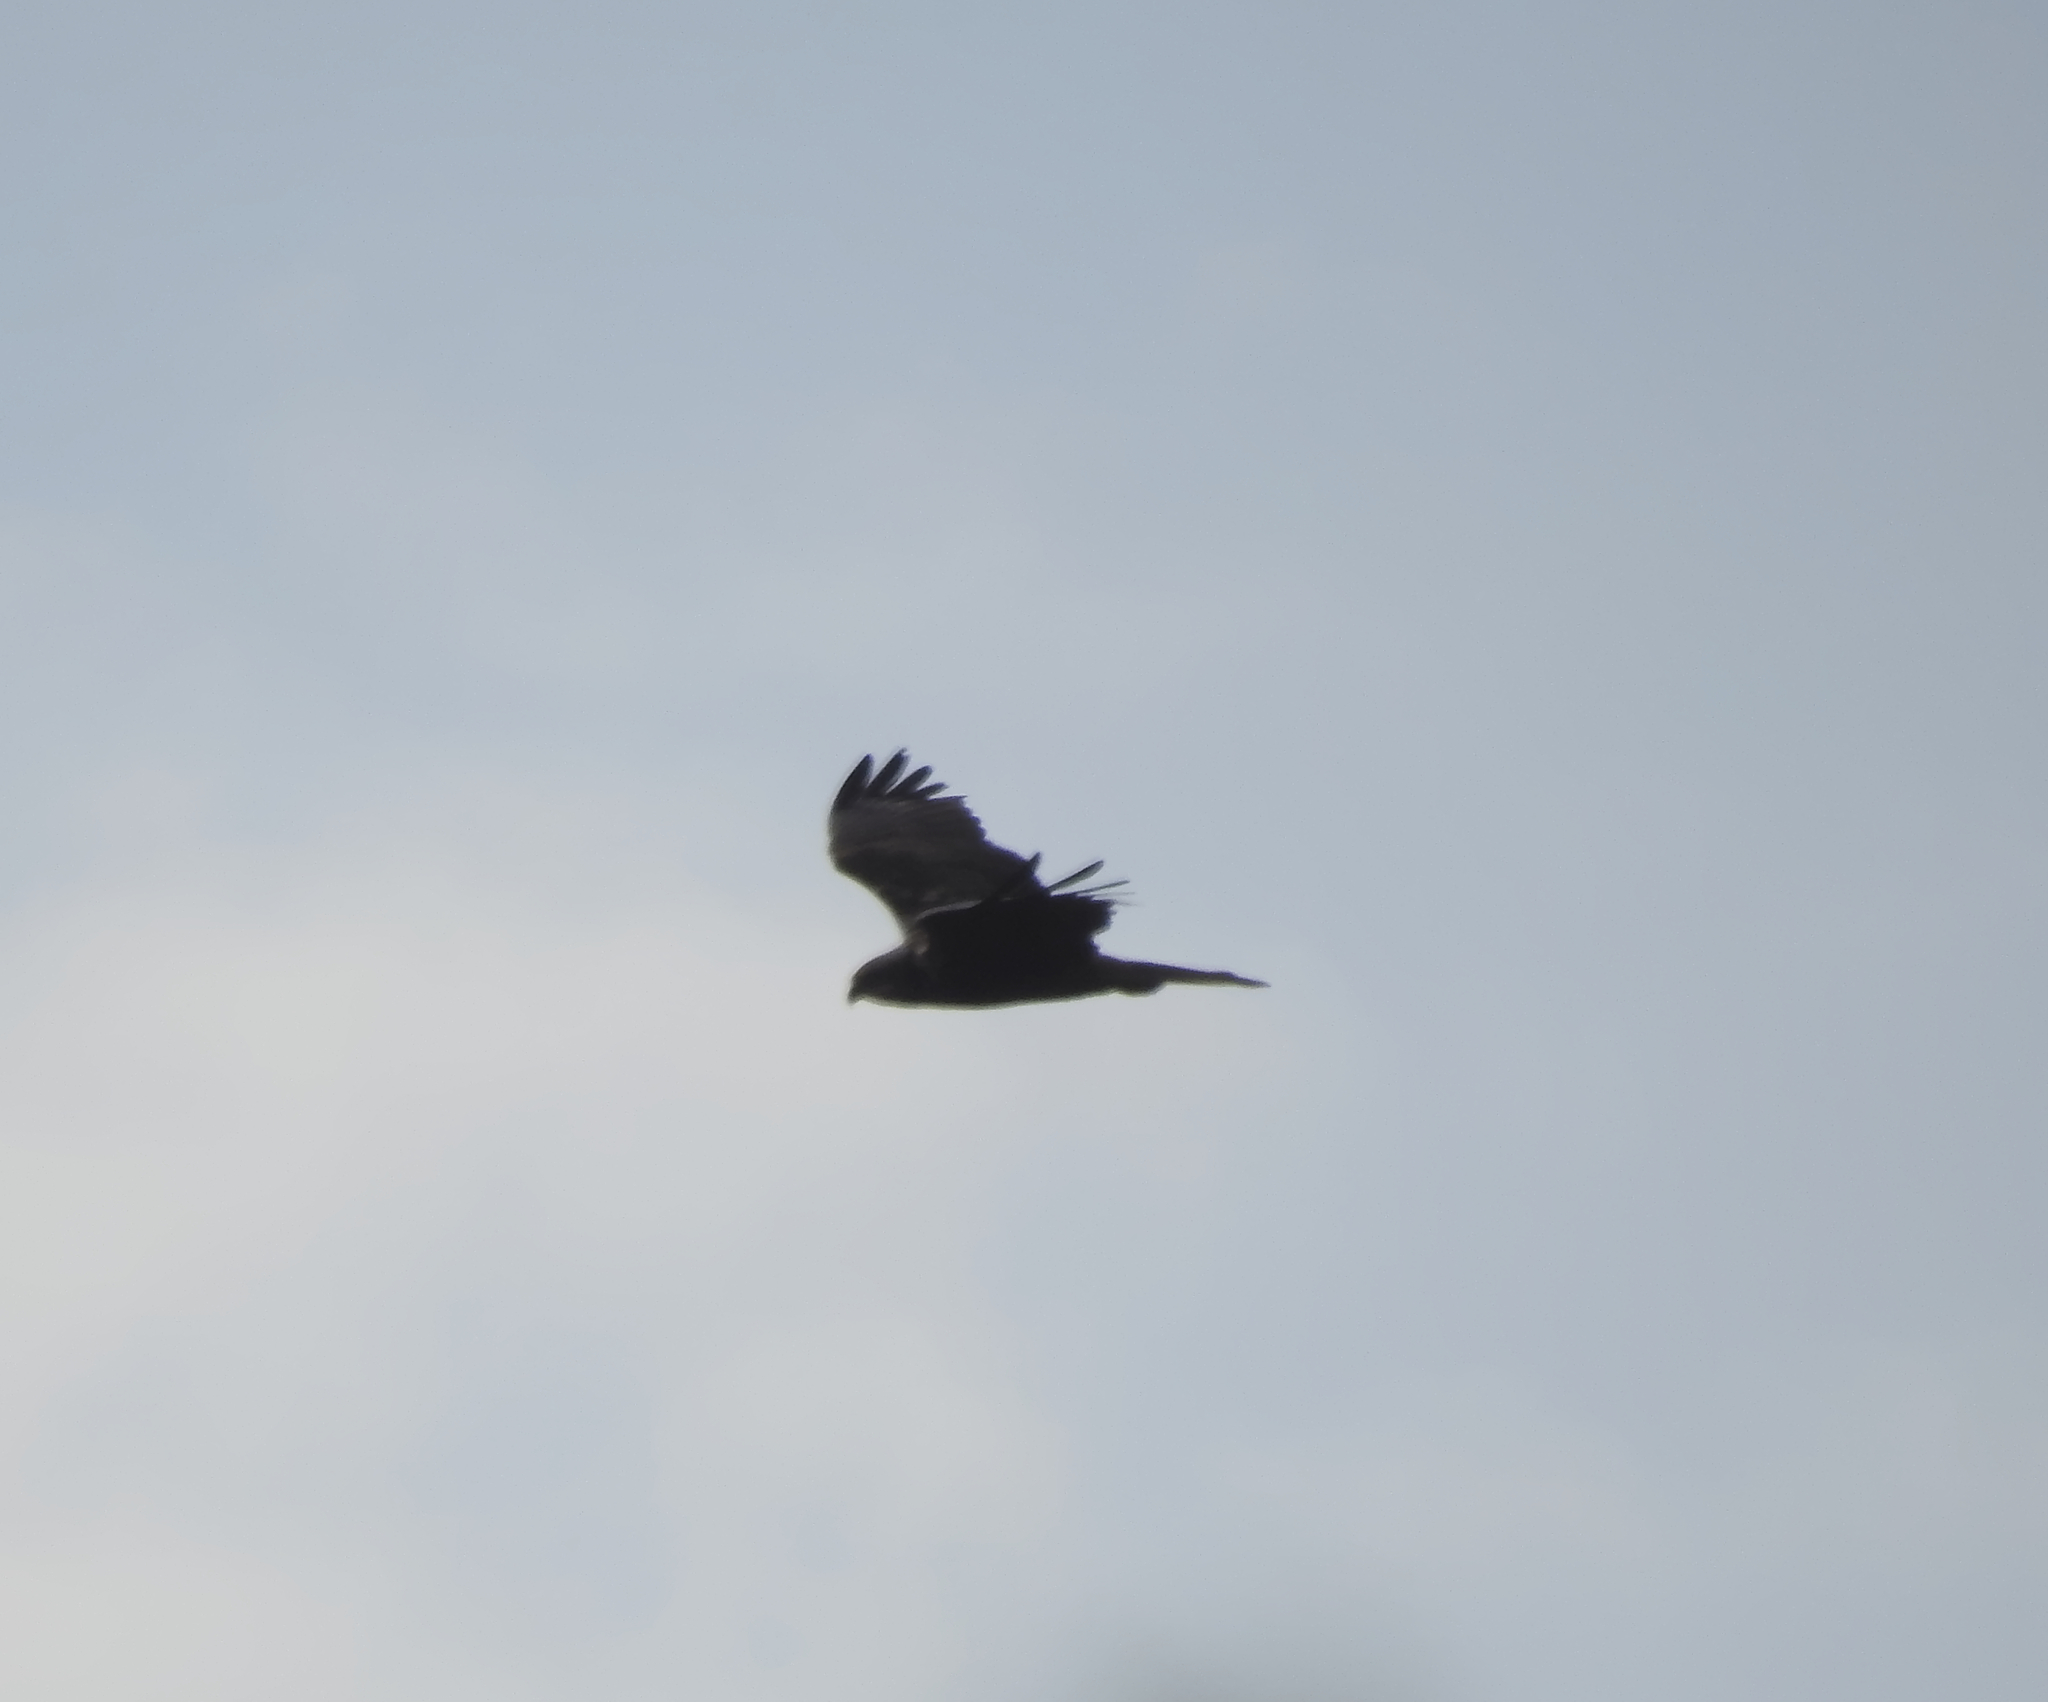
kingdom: Animalia
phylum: Chordata
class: Aves
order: Accipitriformes
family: Accipitridae
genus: Circus
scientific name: Circus aeruginosus
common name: Western marsh harrier
